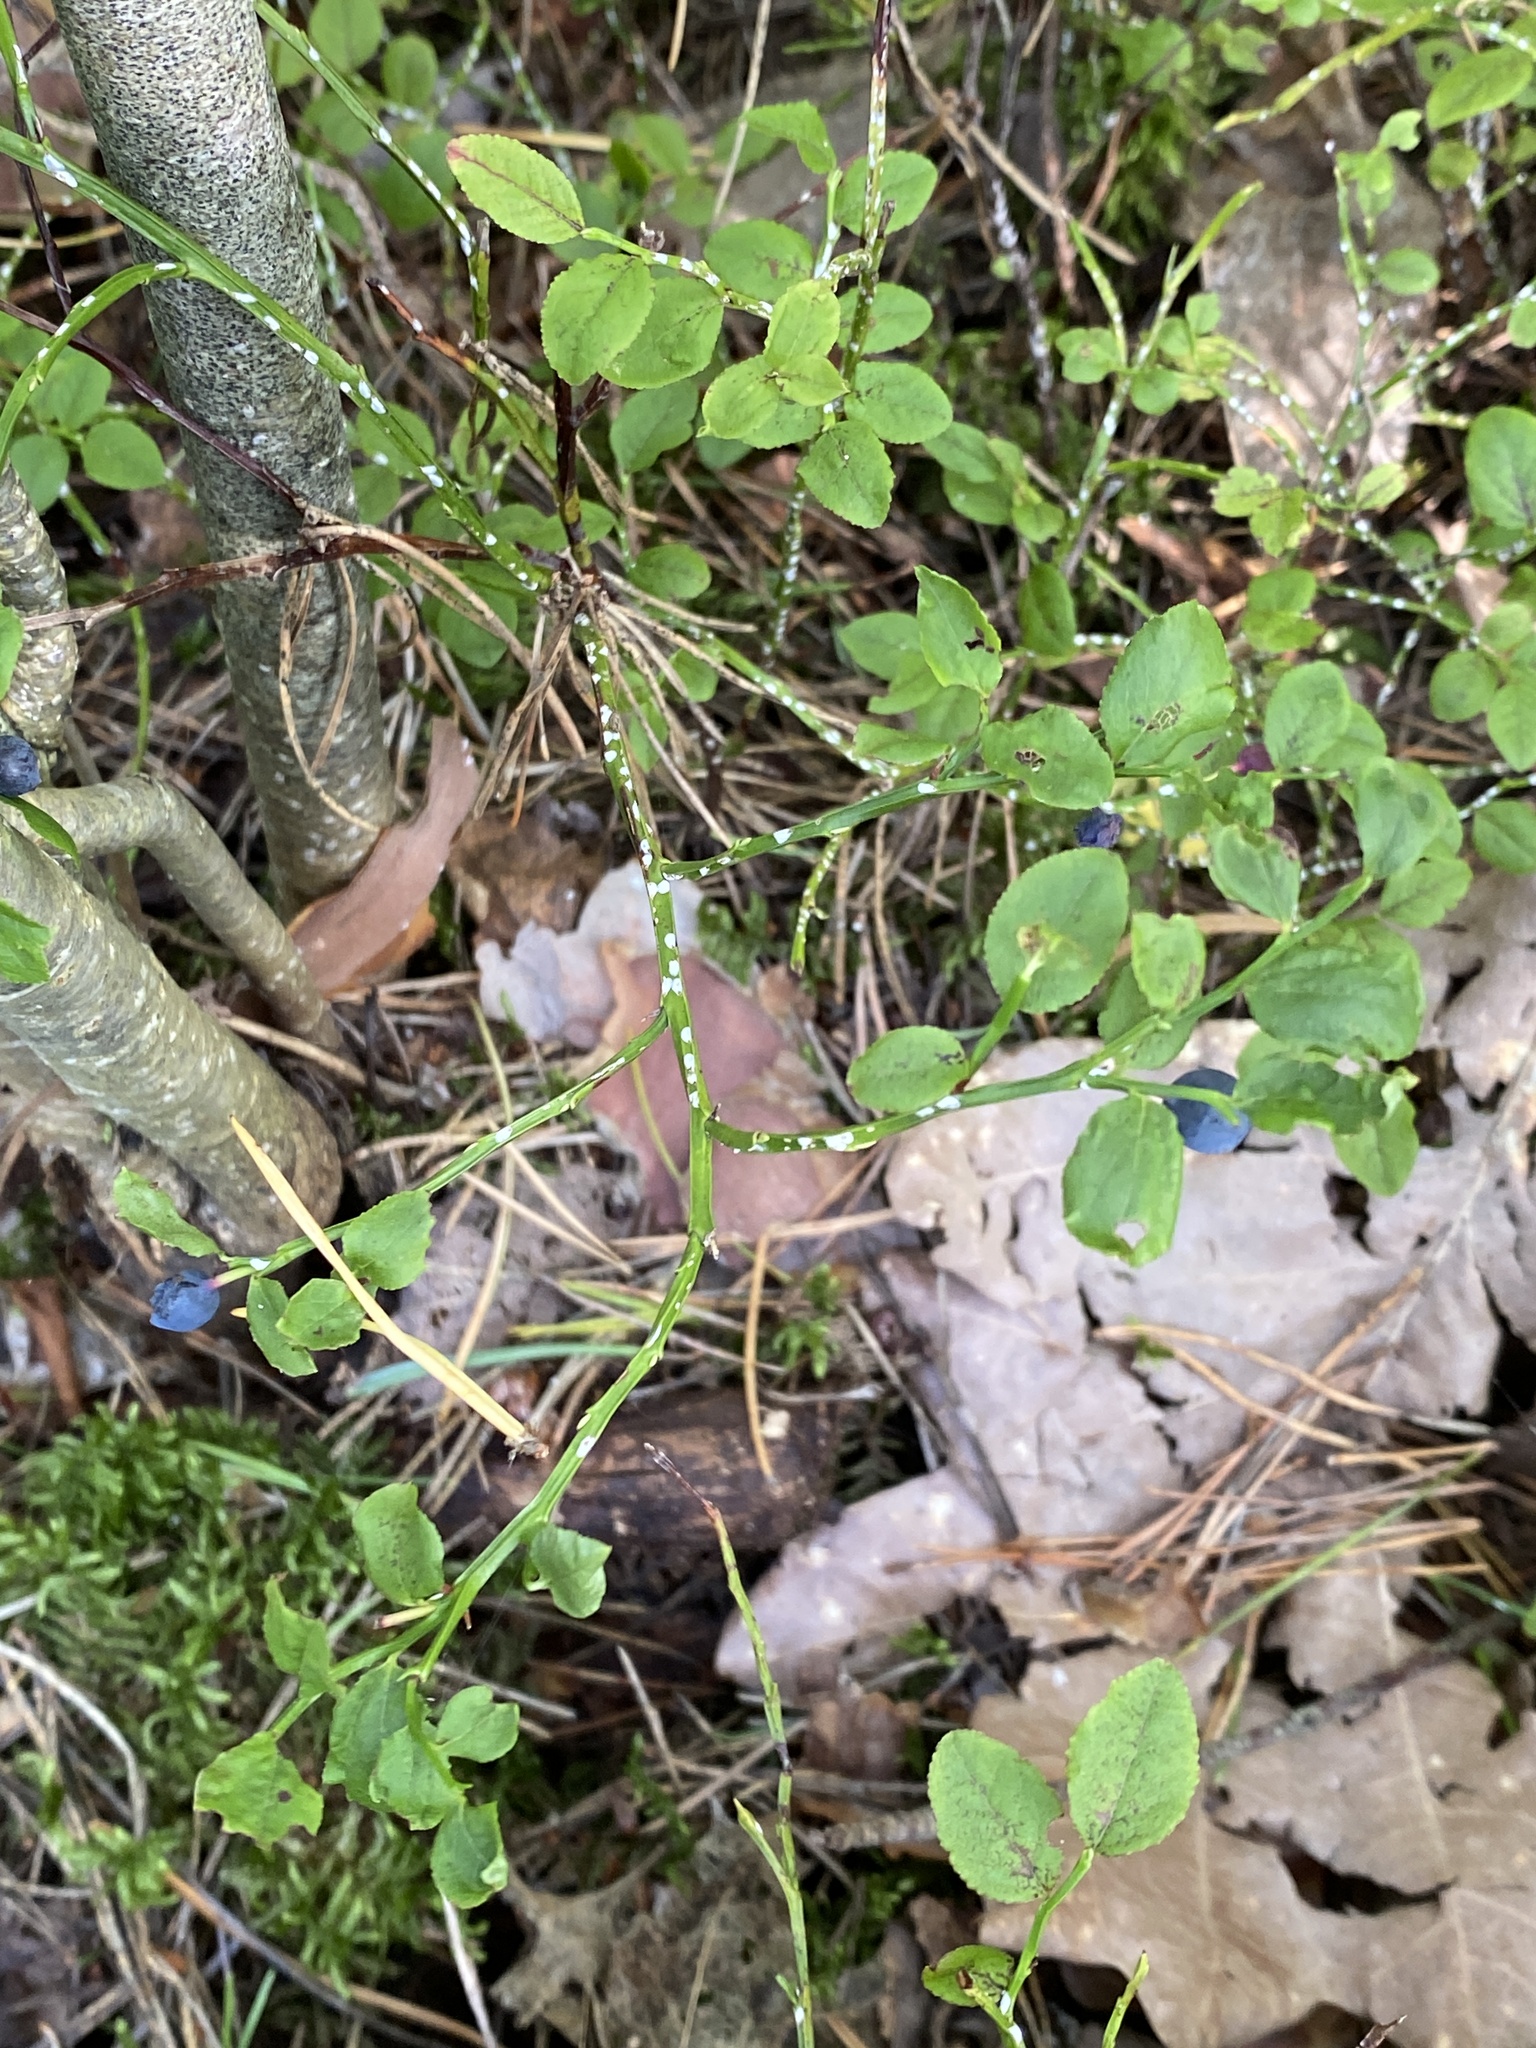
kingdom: Plantae
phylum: Tracheophyta
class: Magnoliopsida
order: Ericales
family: Ericaceae
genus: Vaccinium
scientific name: Vaccinium myrtillus
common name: Bilberry
